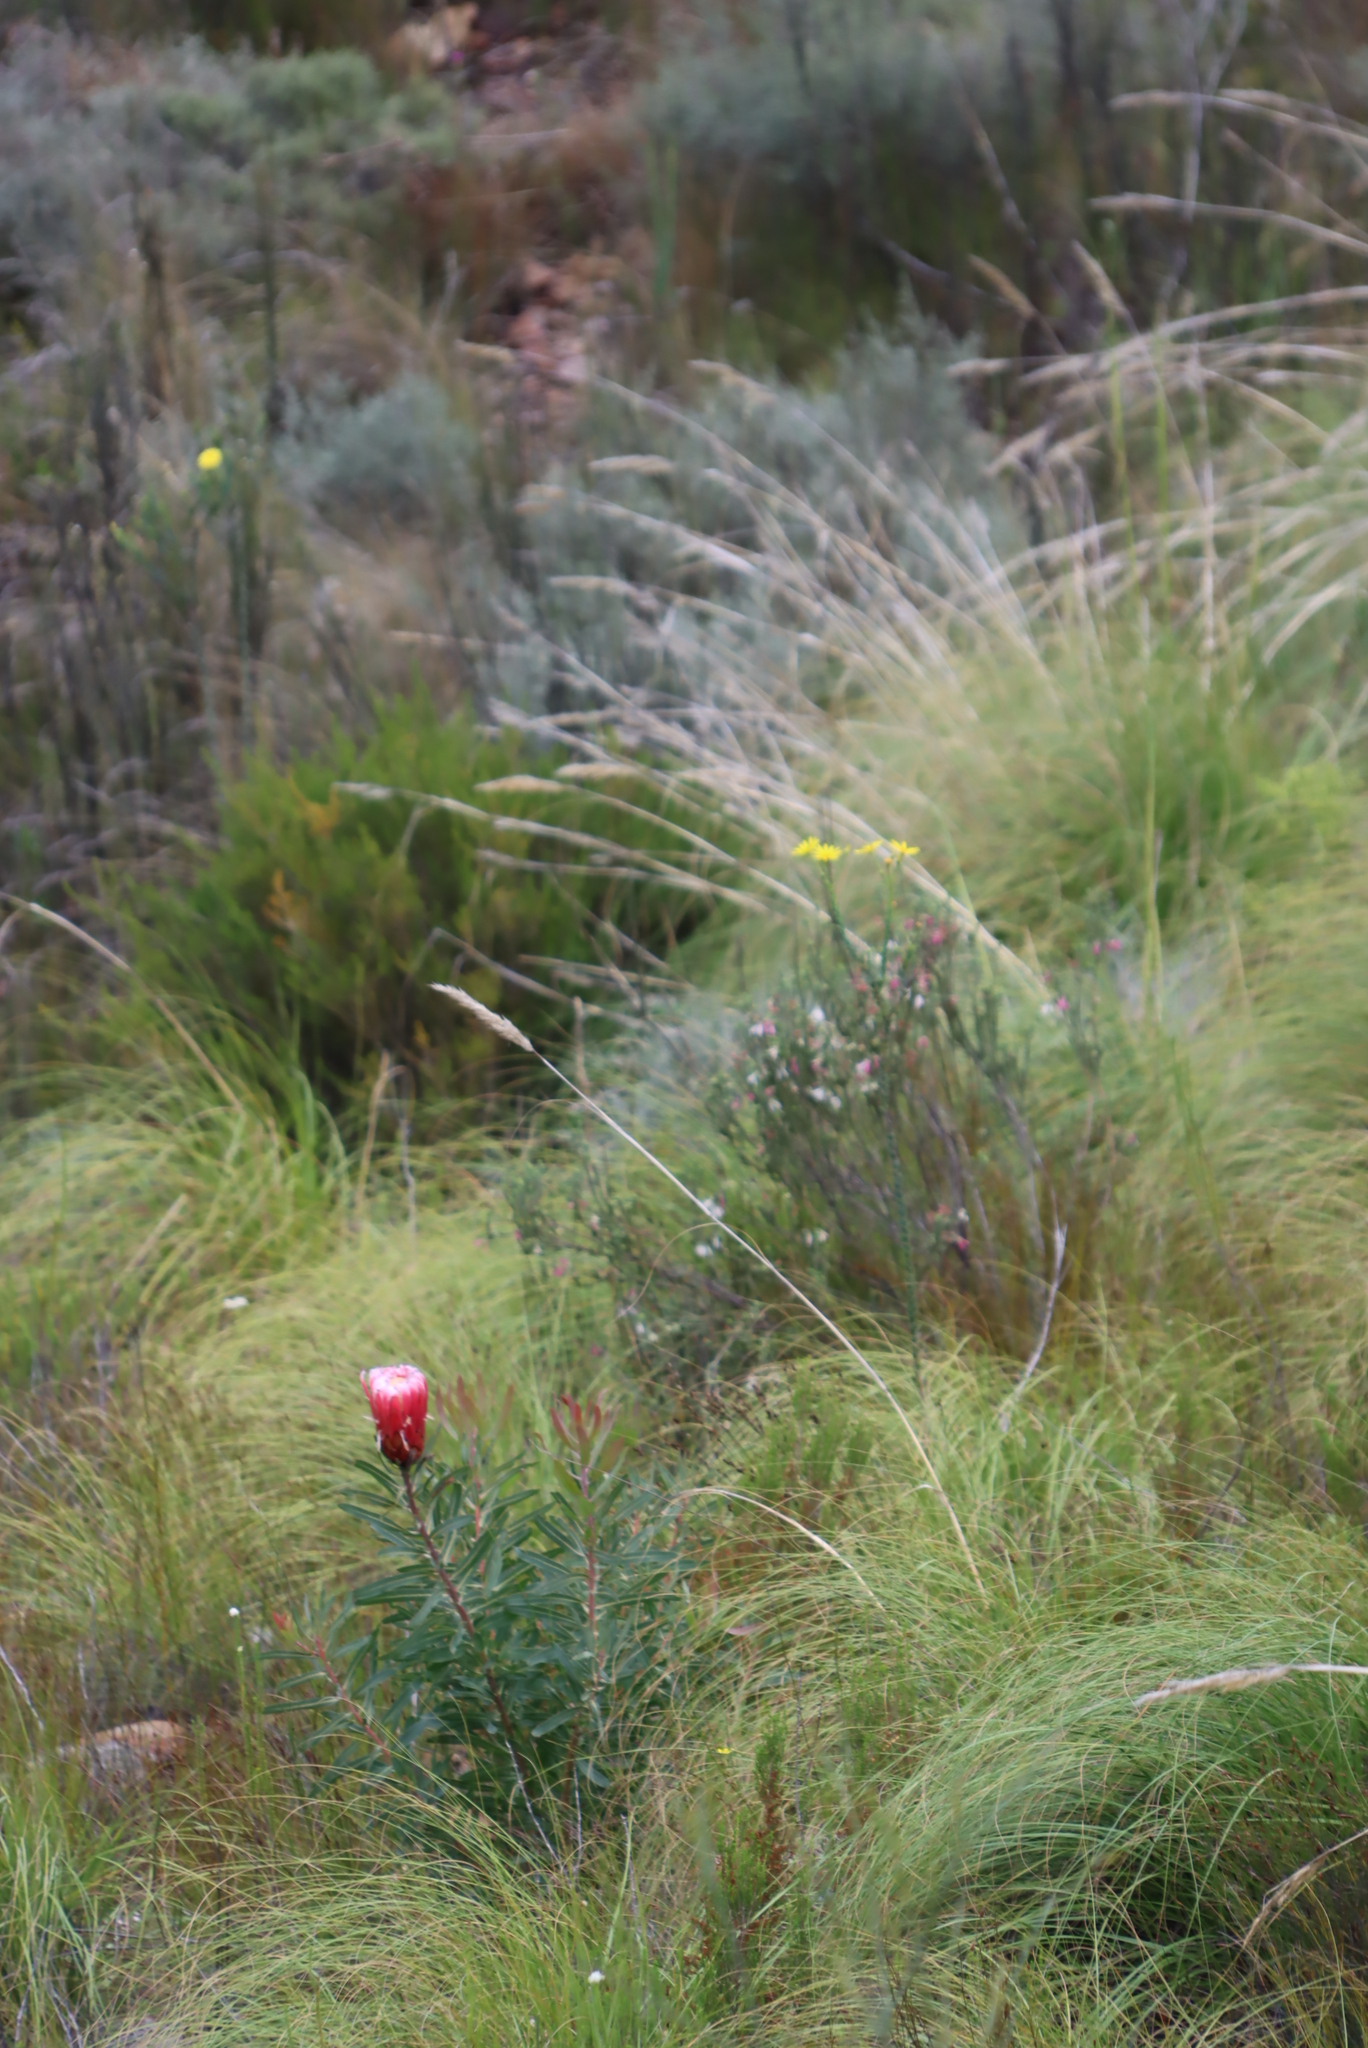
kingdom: Plantae
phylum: Tracheophyta
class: Magnoliopsida
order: Proteales
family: Proteaceae
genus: Protea
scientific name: Protea neriifolia
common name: Blue sugarbush
